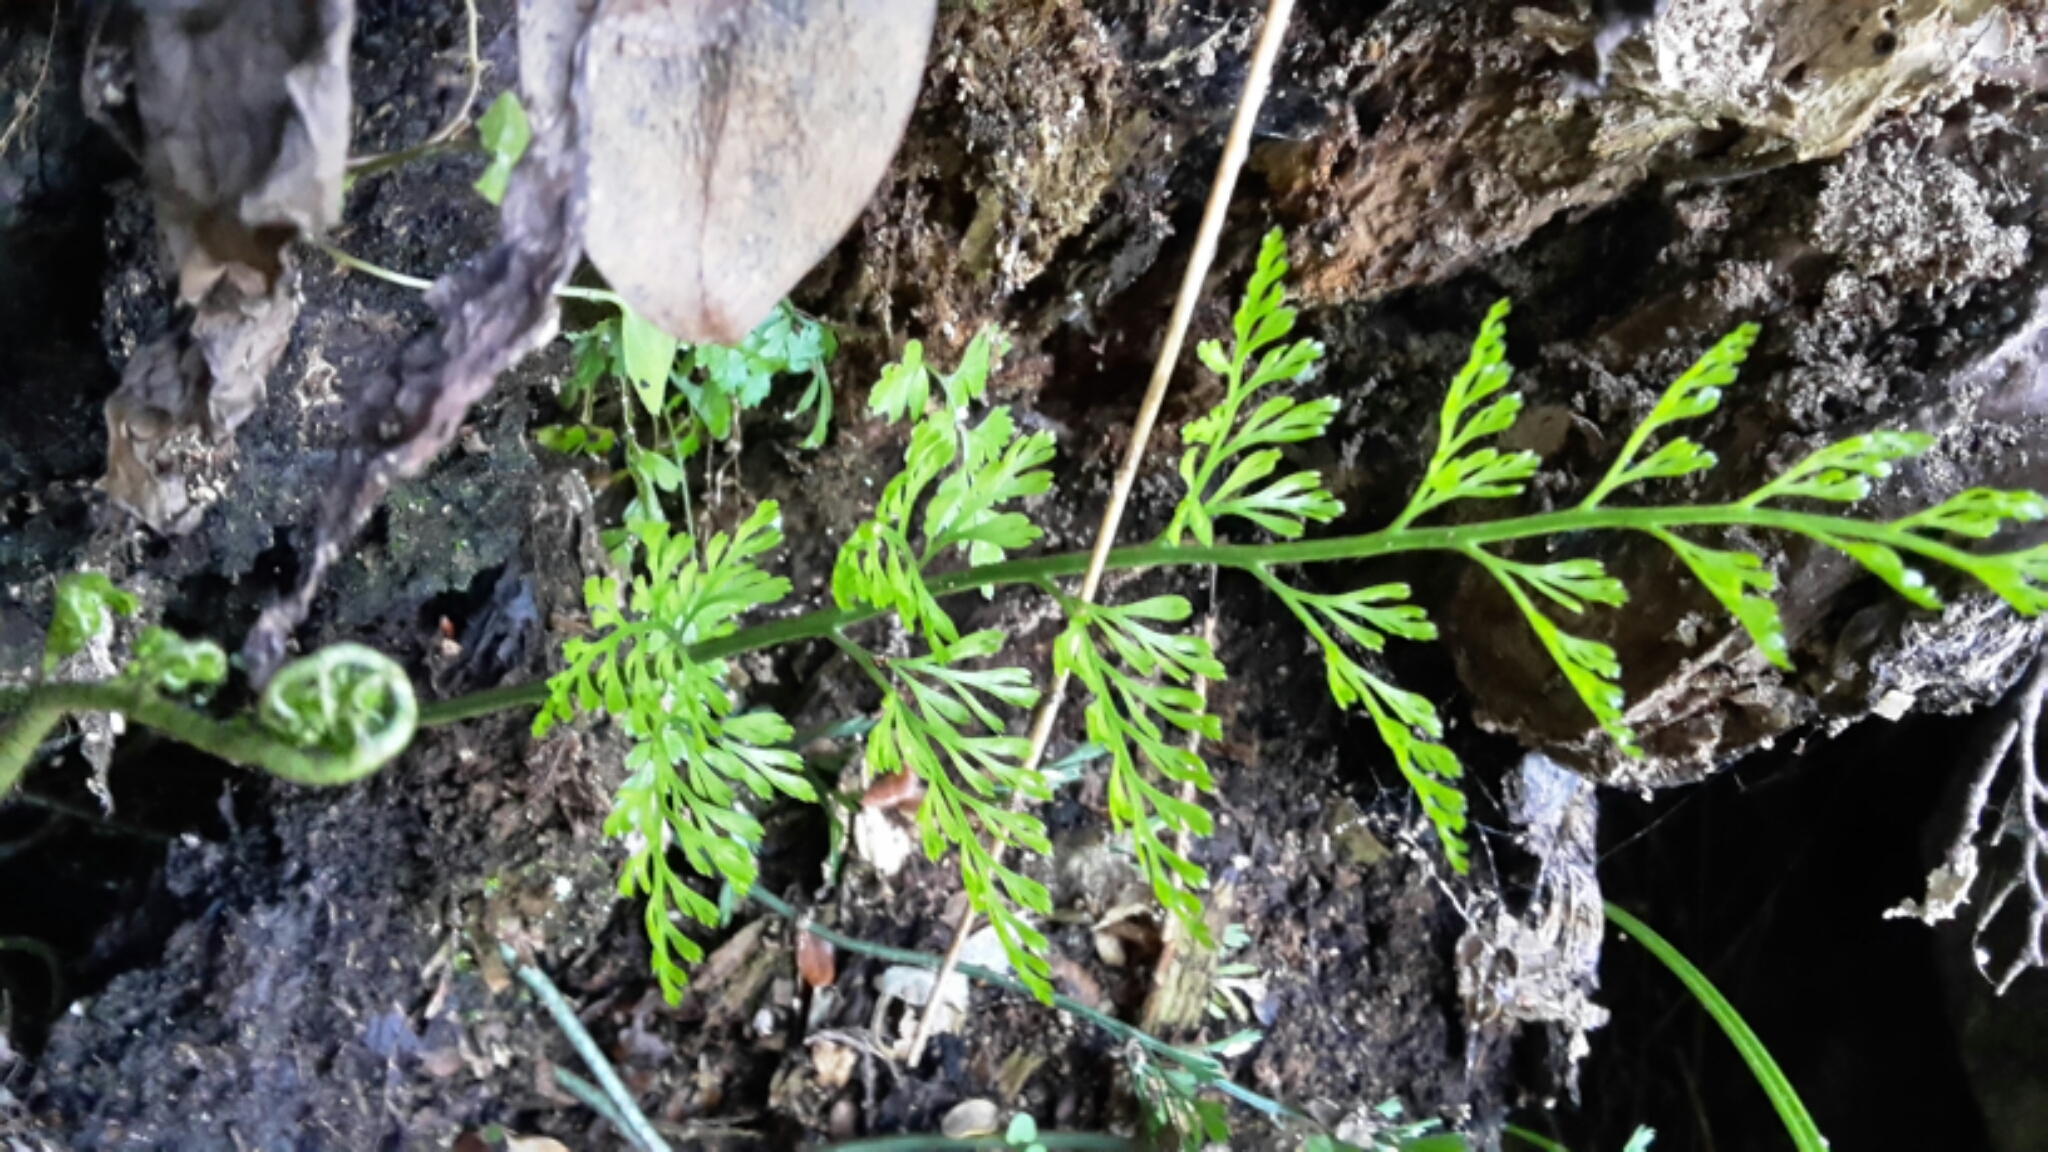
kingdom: Plantae
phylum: Tracheophyta
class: Polypodiopsida
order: Polypodiales
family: Aspleniaceae
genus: Asplenium
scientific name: Asplenium richardii
